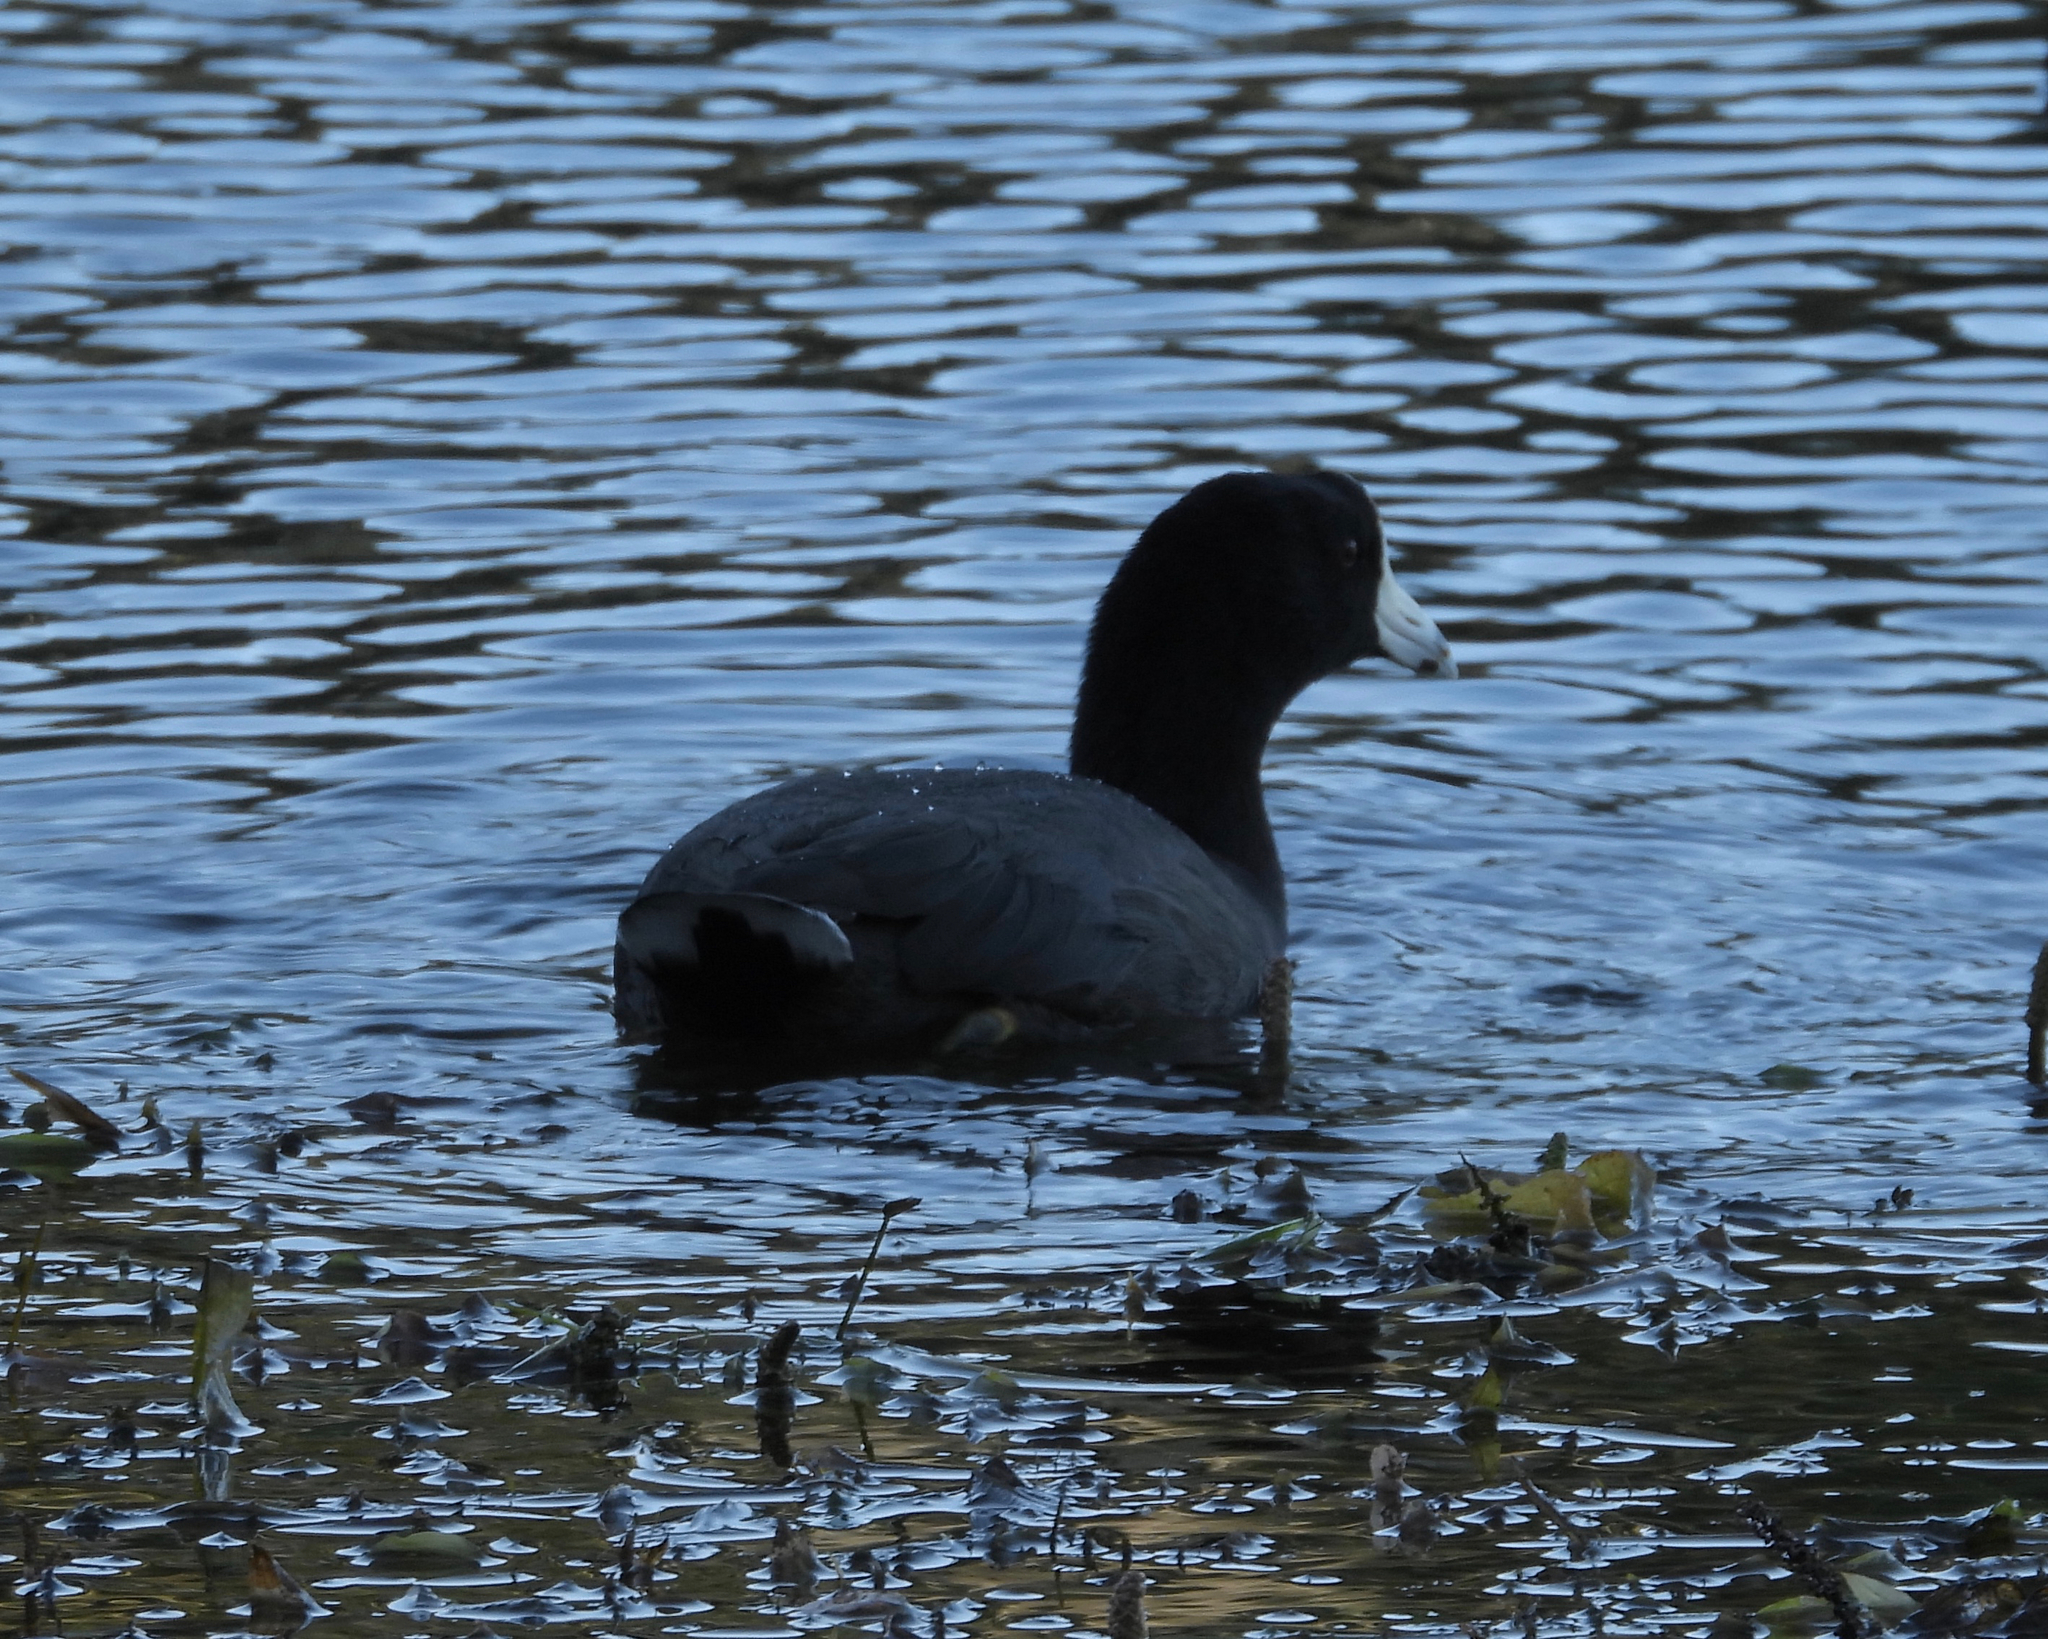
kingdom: Animalia
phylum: Chordata
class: Aves
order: Gruiformes
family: Rallidae
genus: Fulica
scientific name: Fulica americana
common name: American coot
